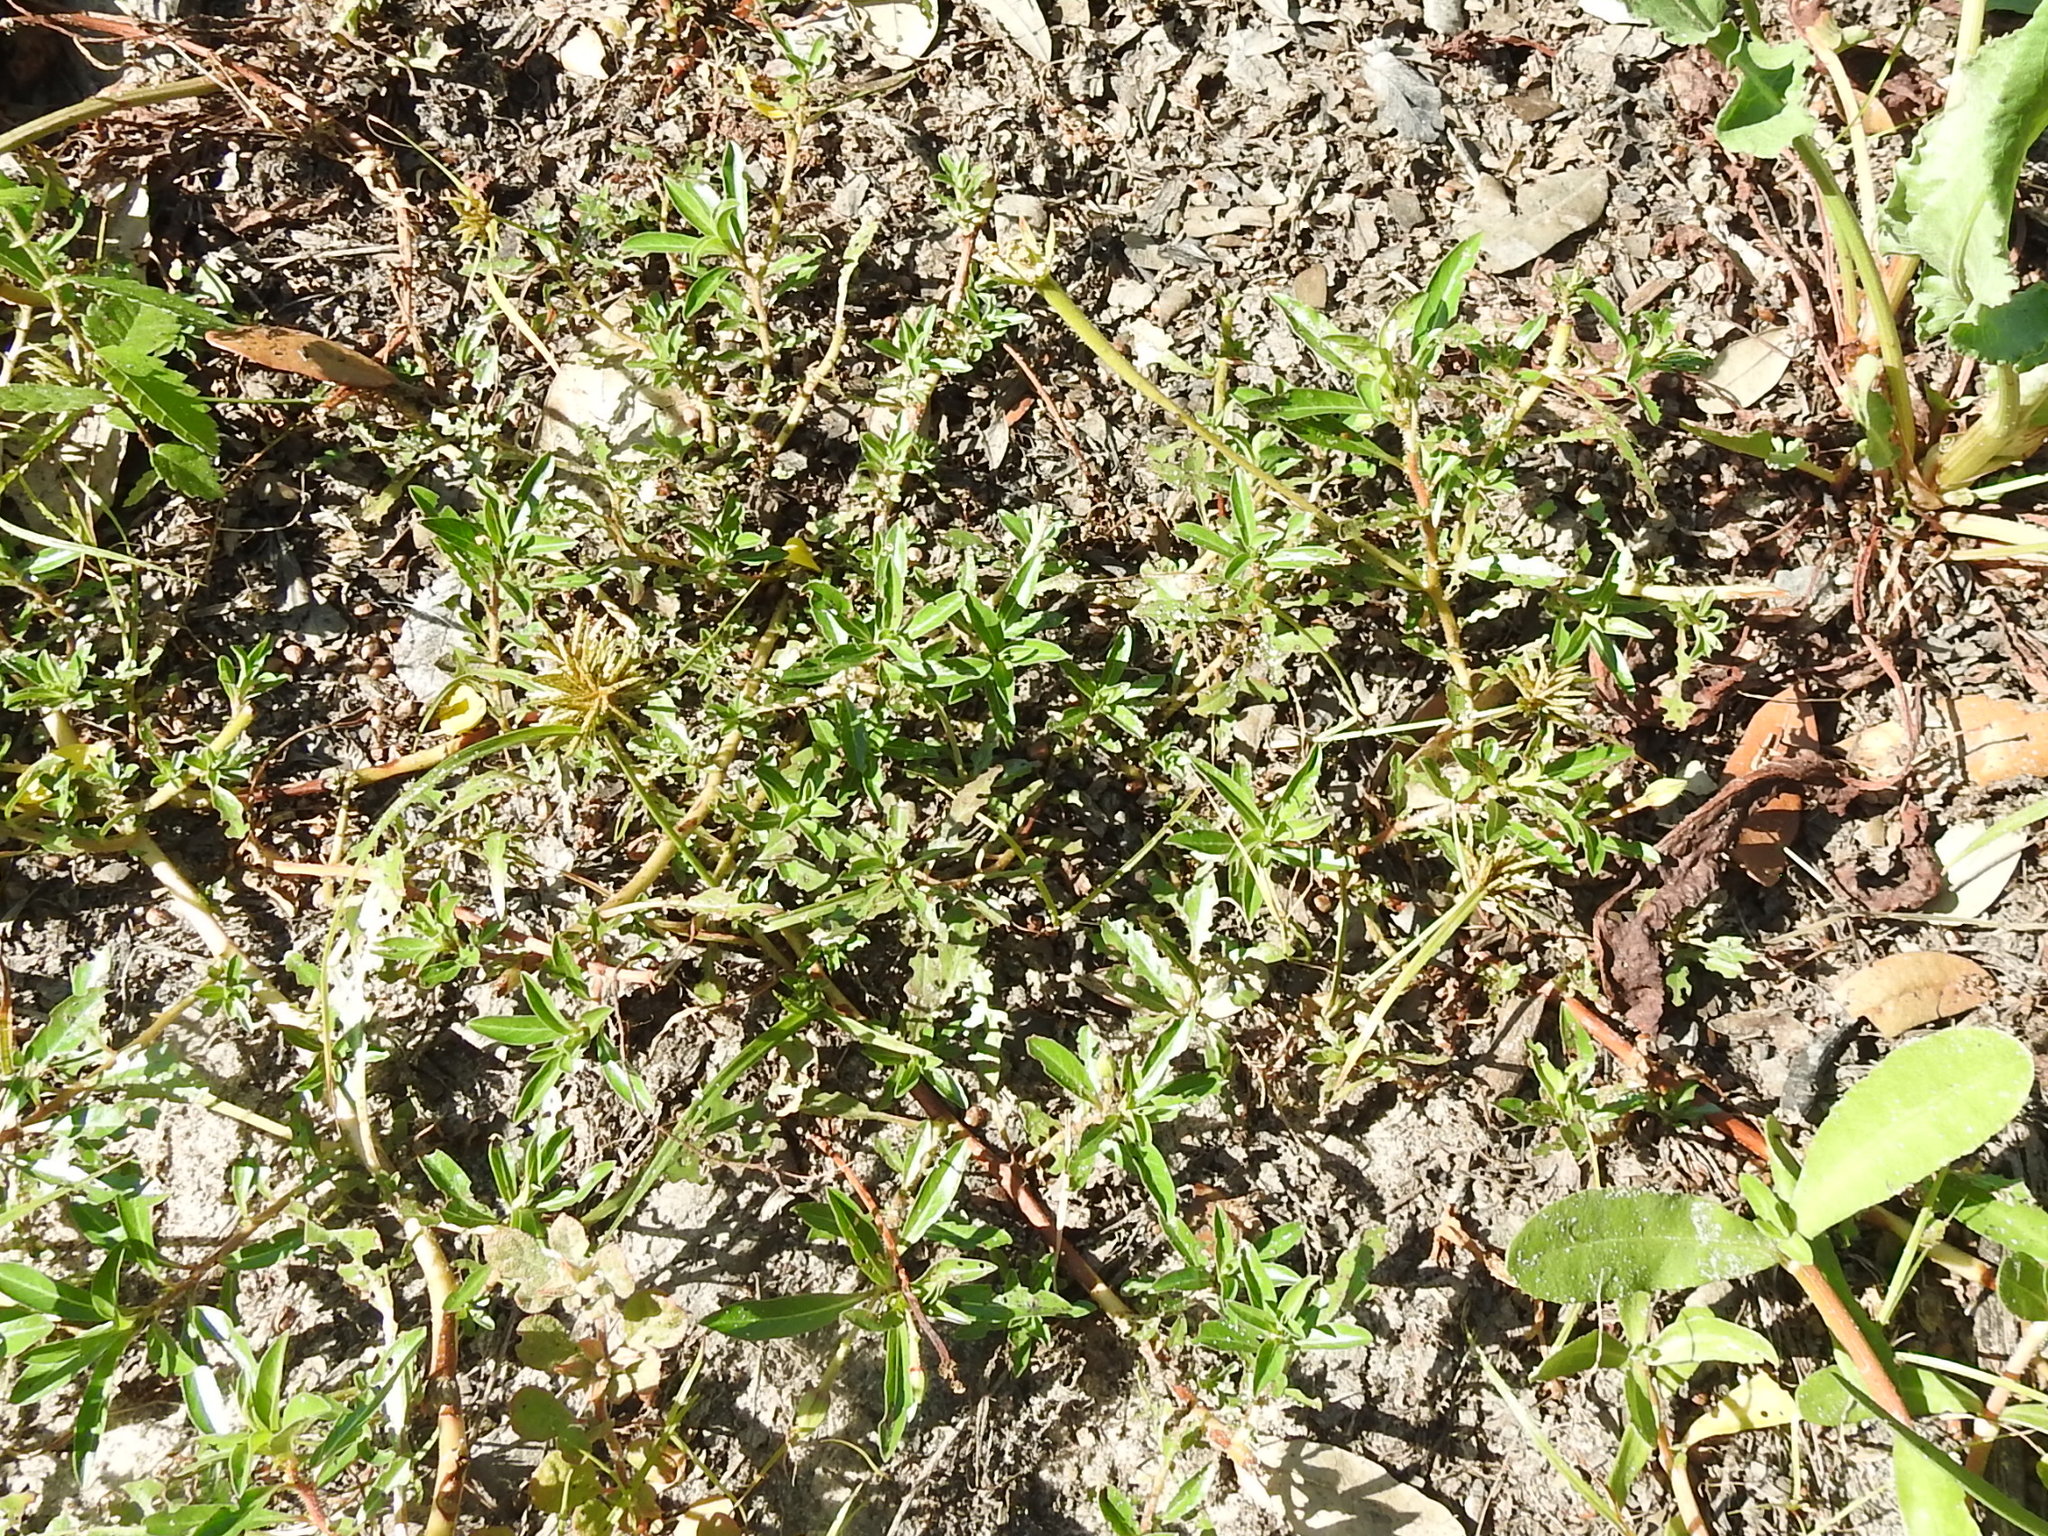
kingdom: Plantae
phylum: Tracheophyta
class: Magnoliopsida
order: Myrtales
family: Onagraceae
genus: Ludwigia
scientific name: Ludwigia peploides
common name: Floating primrose-willow
